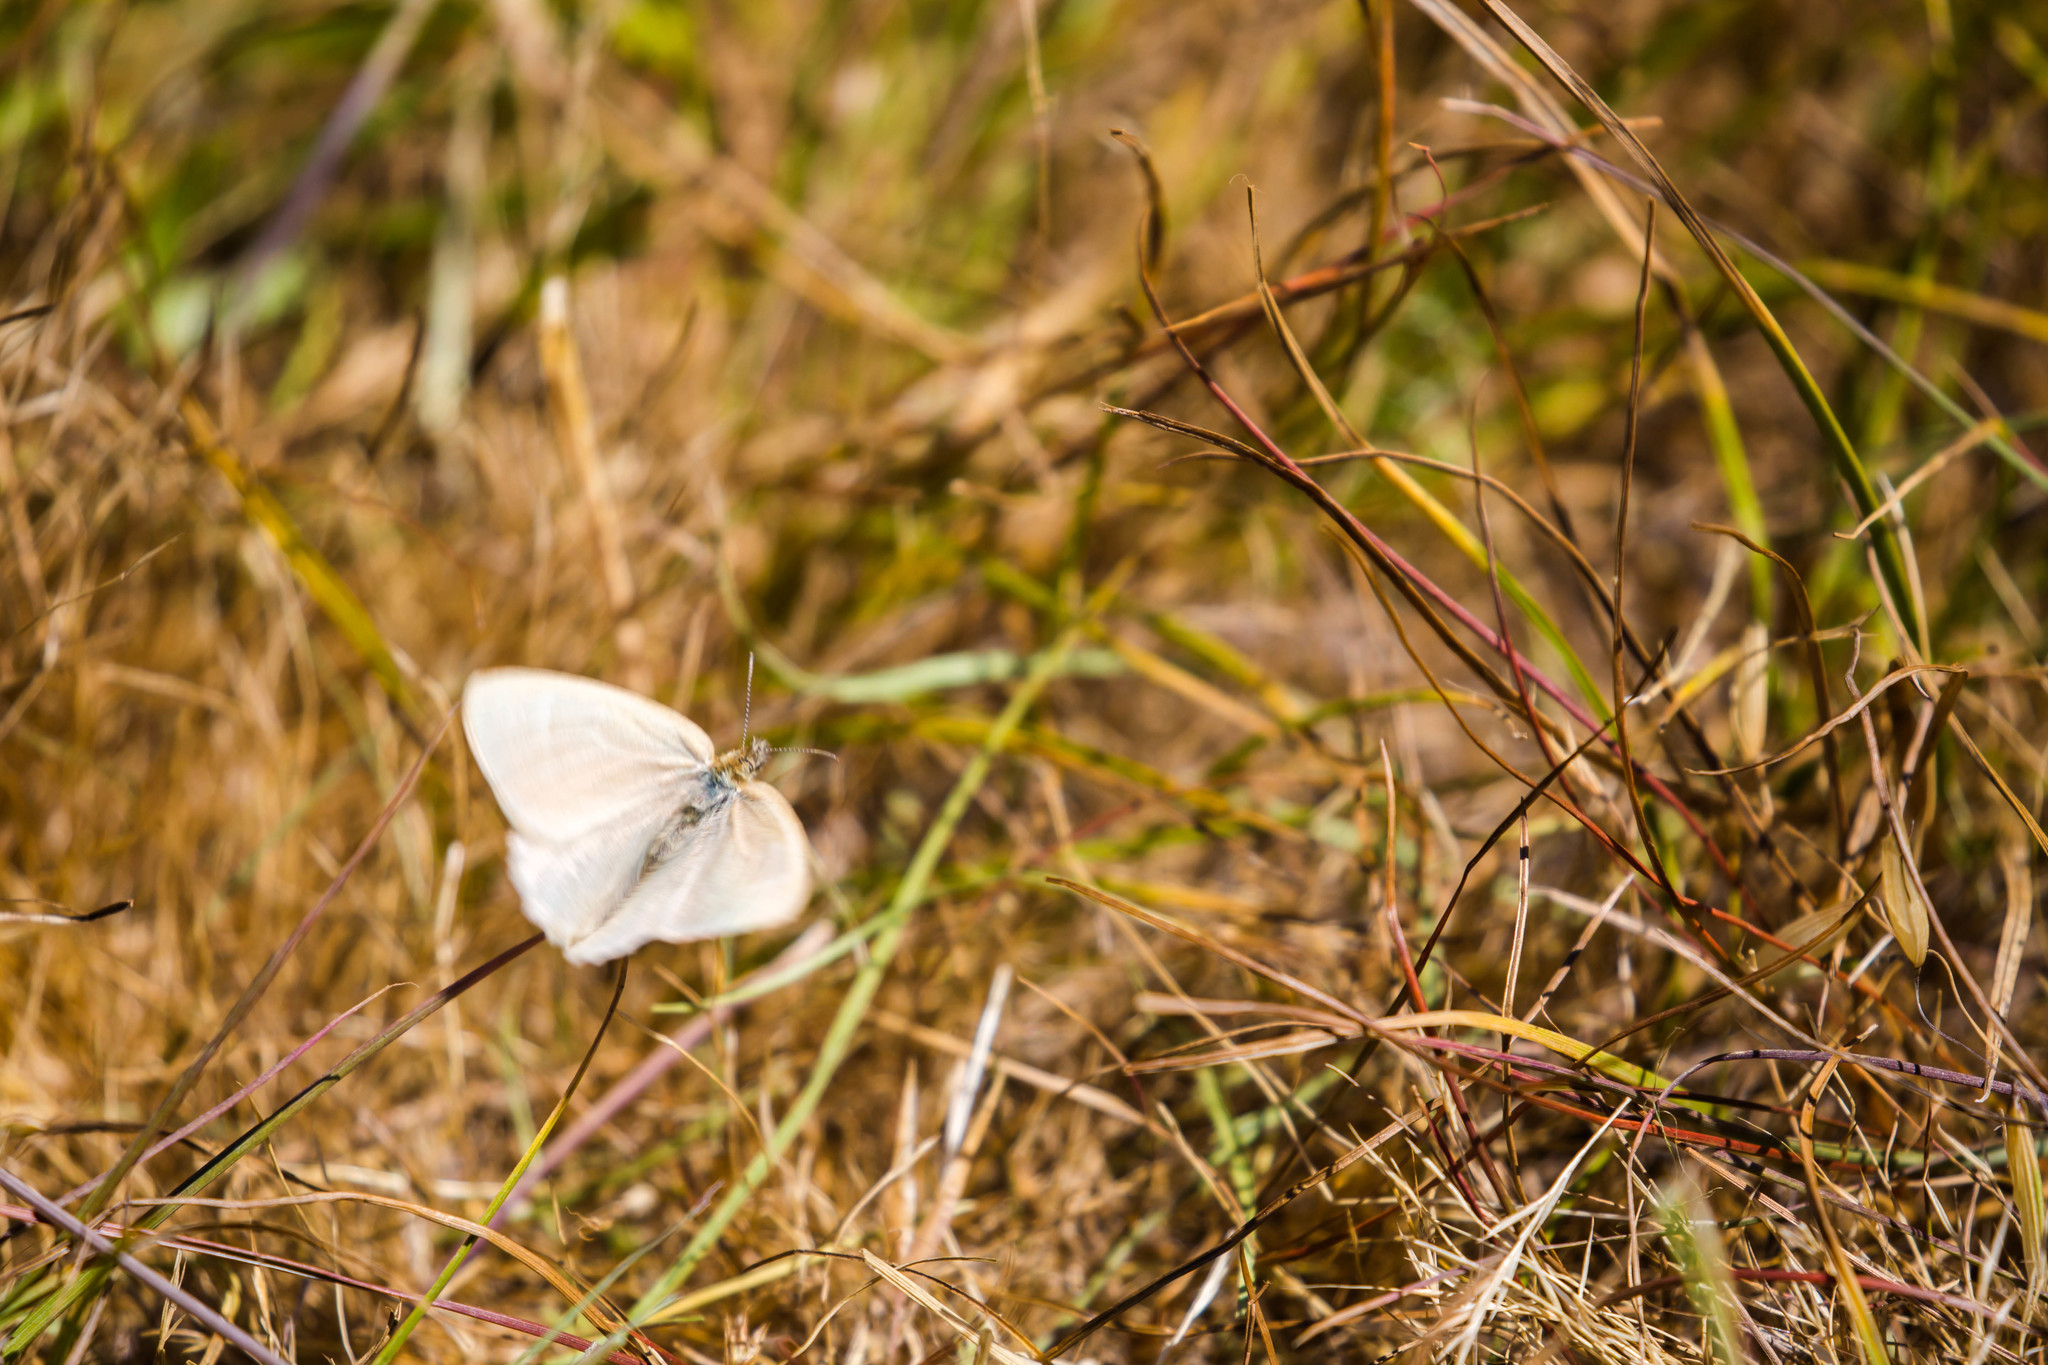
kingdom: Animalia
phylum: Arthropoda
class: Insecta
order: Lepidoptera
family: Nymphalidae
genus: Coenonympha
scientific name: Coenonympha california
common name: Common ringlet
